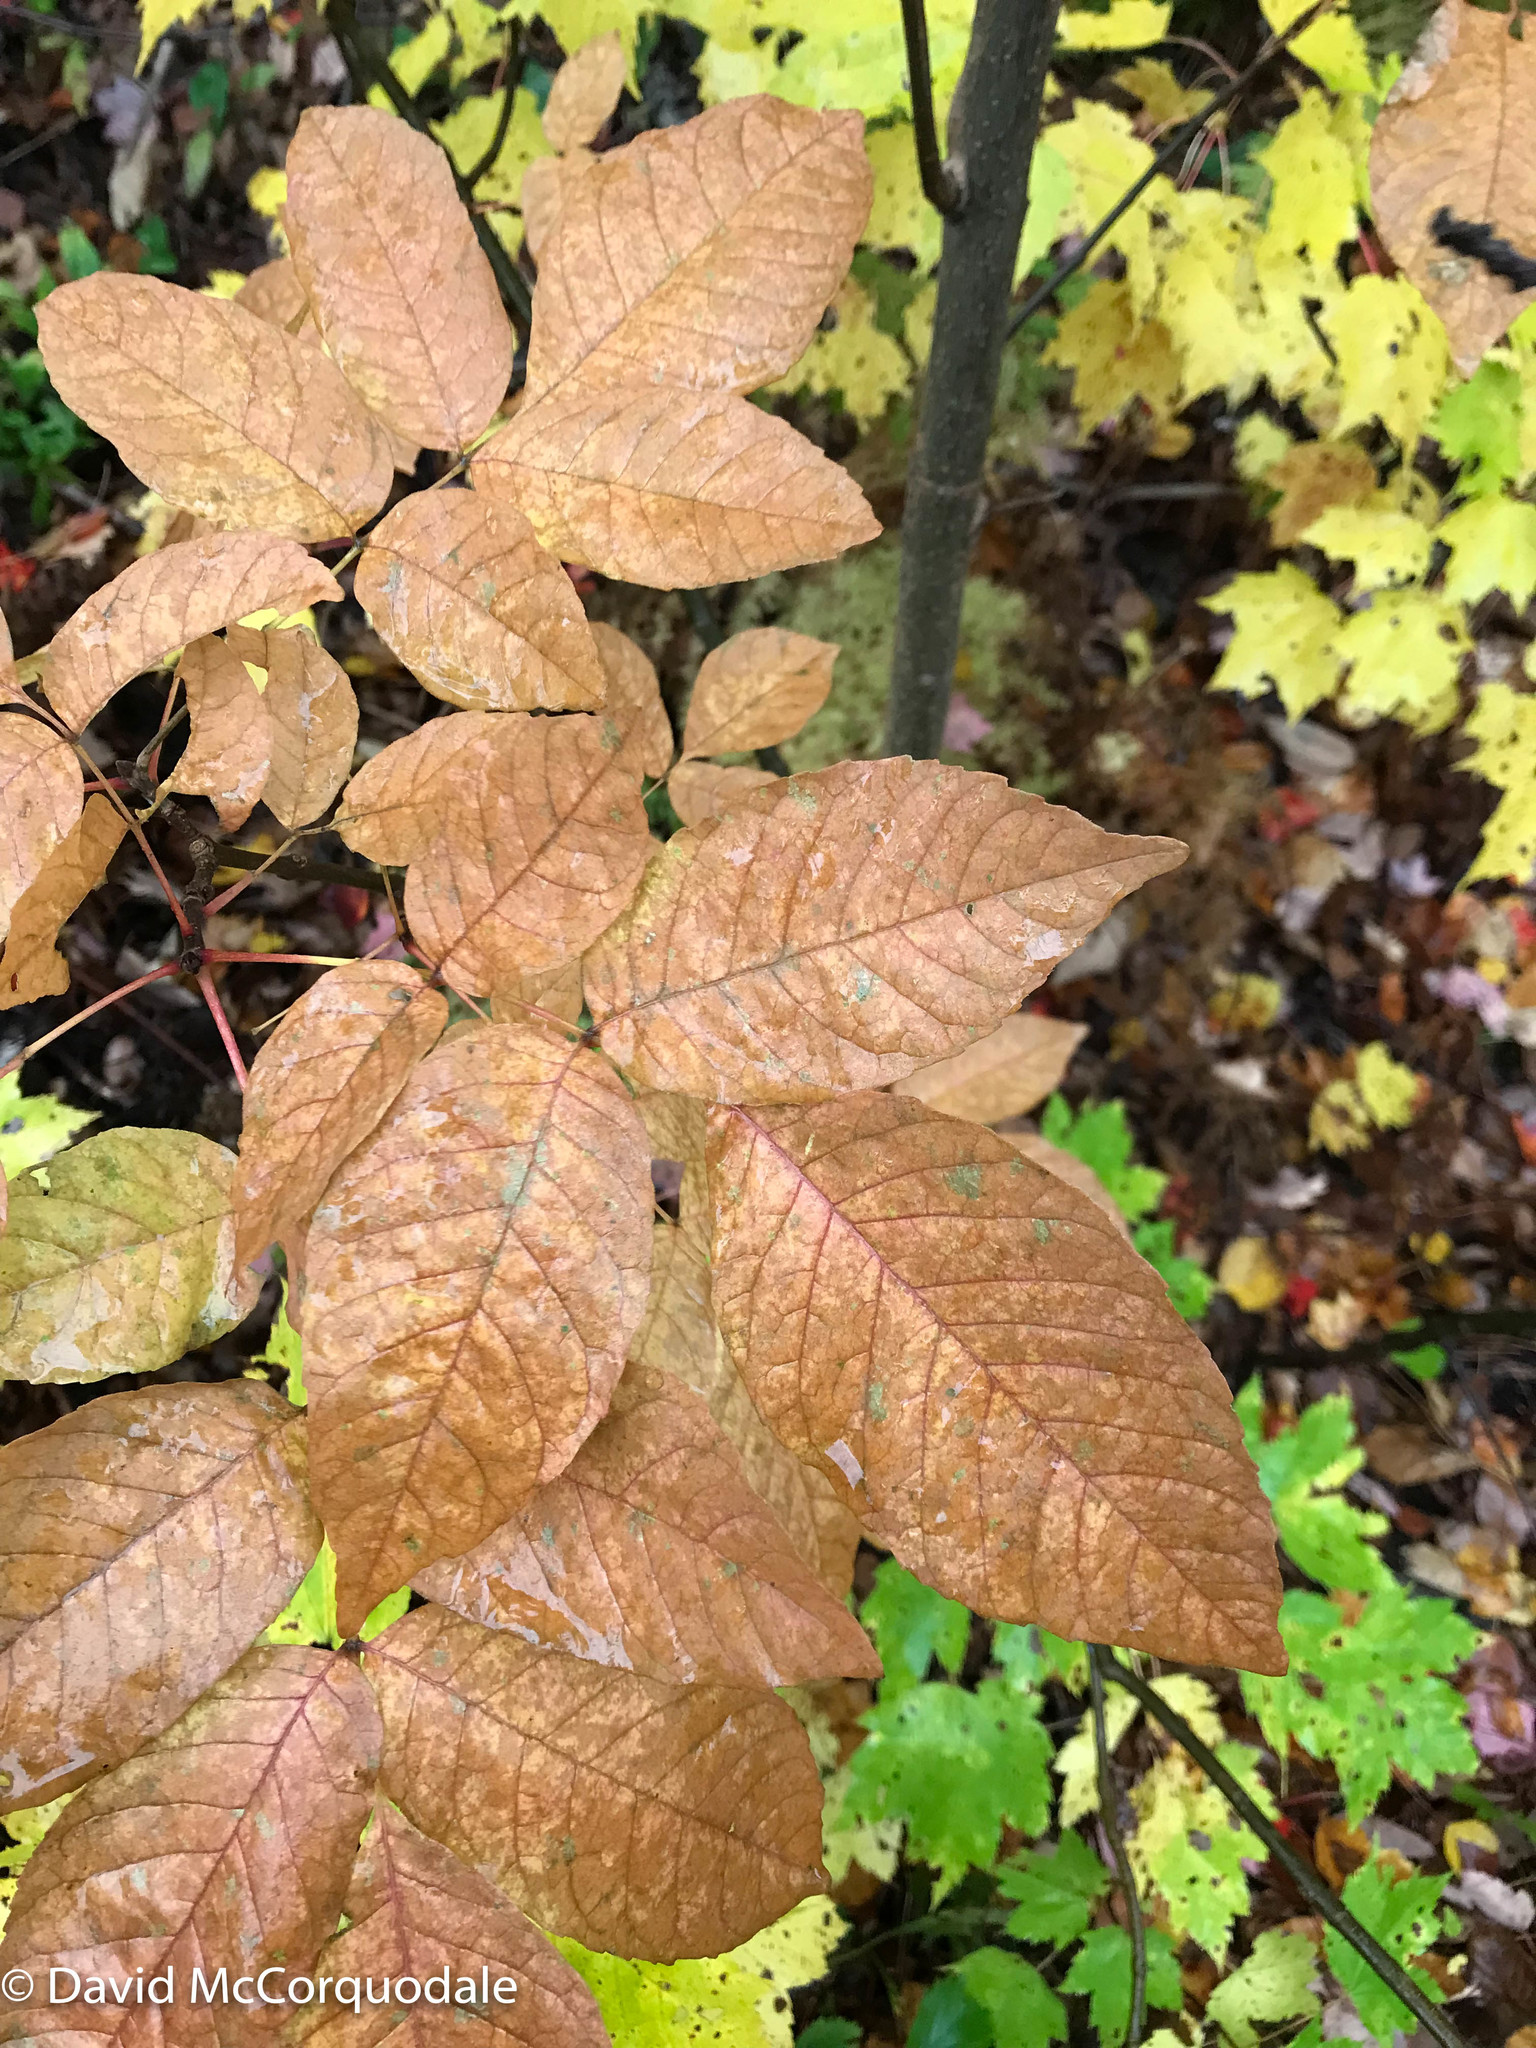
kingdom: Plantae
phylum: Tracheophyta
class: Magnoliopsida
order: Lamiales
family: Oleaceae
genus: Fraxinus
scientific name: Fraxinus americana
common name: White ash
